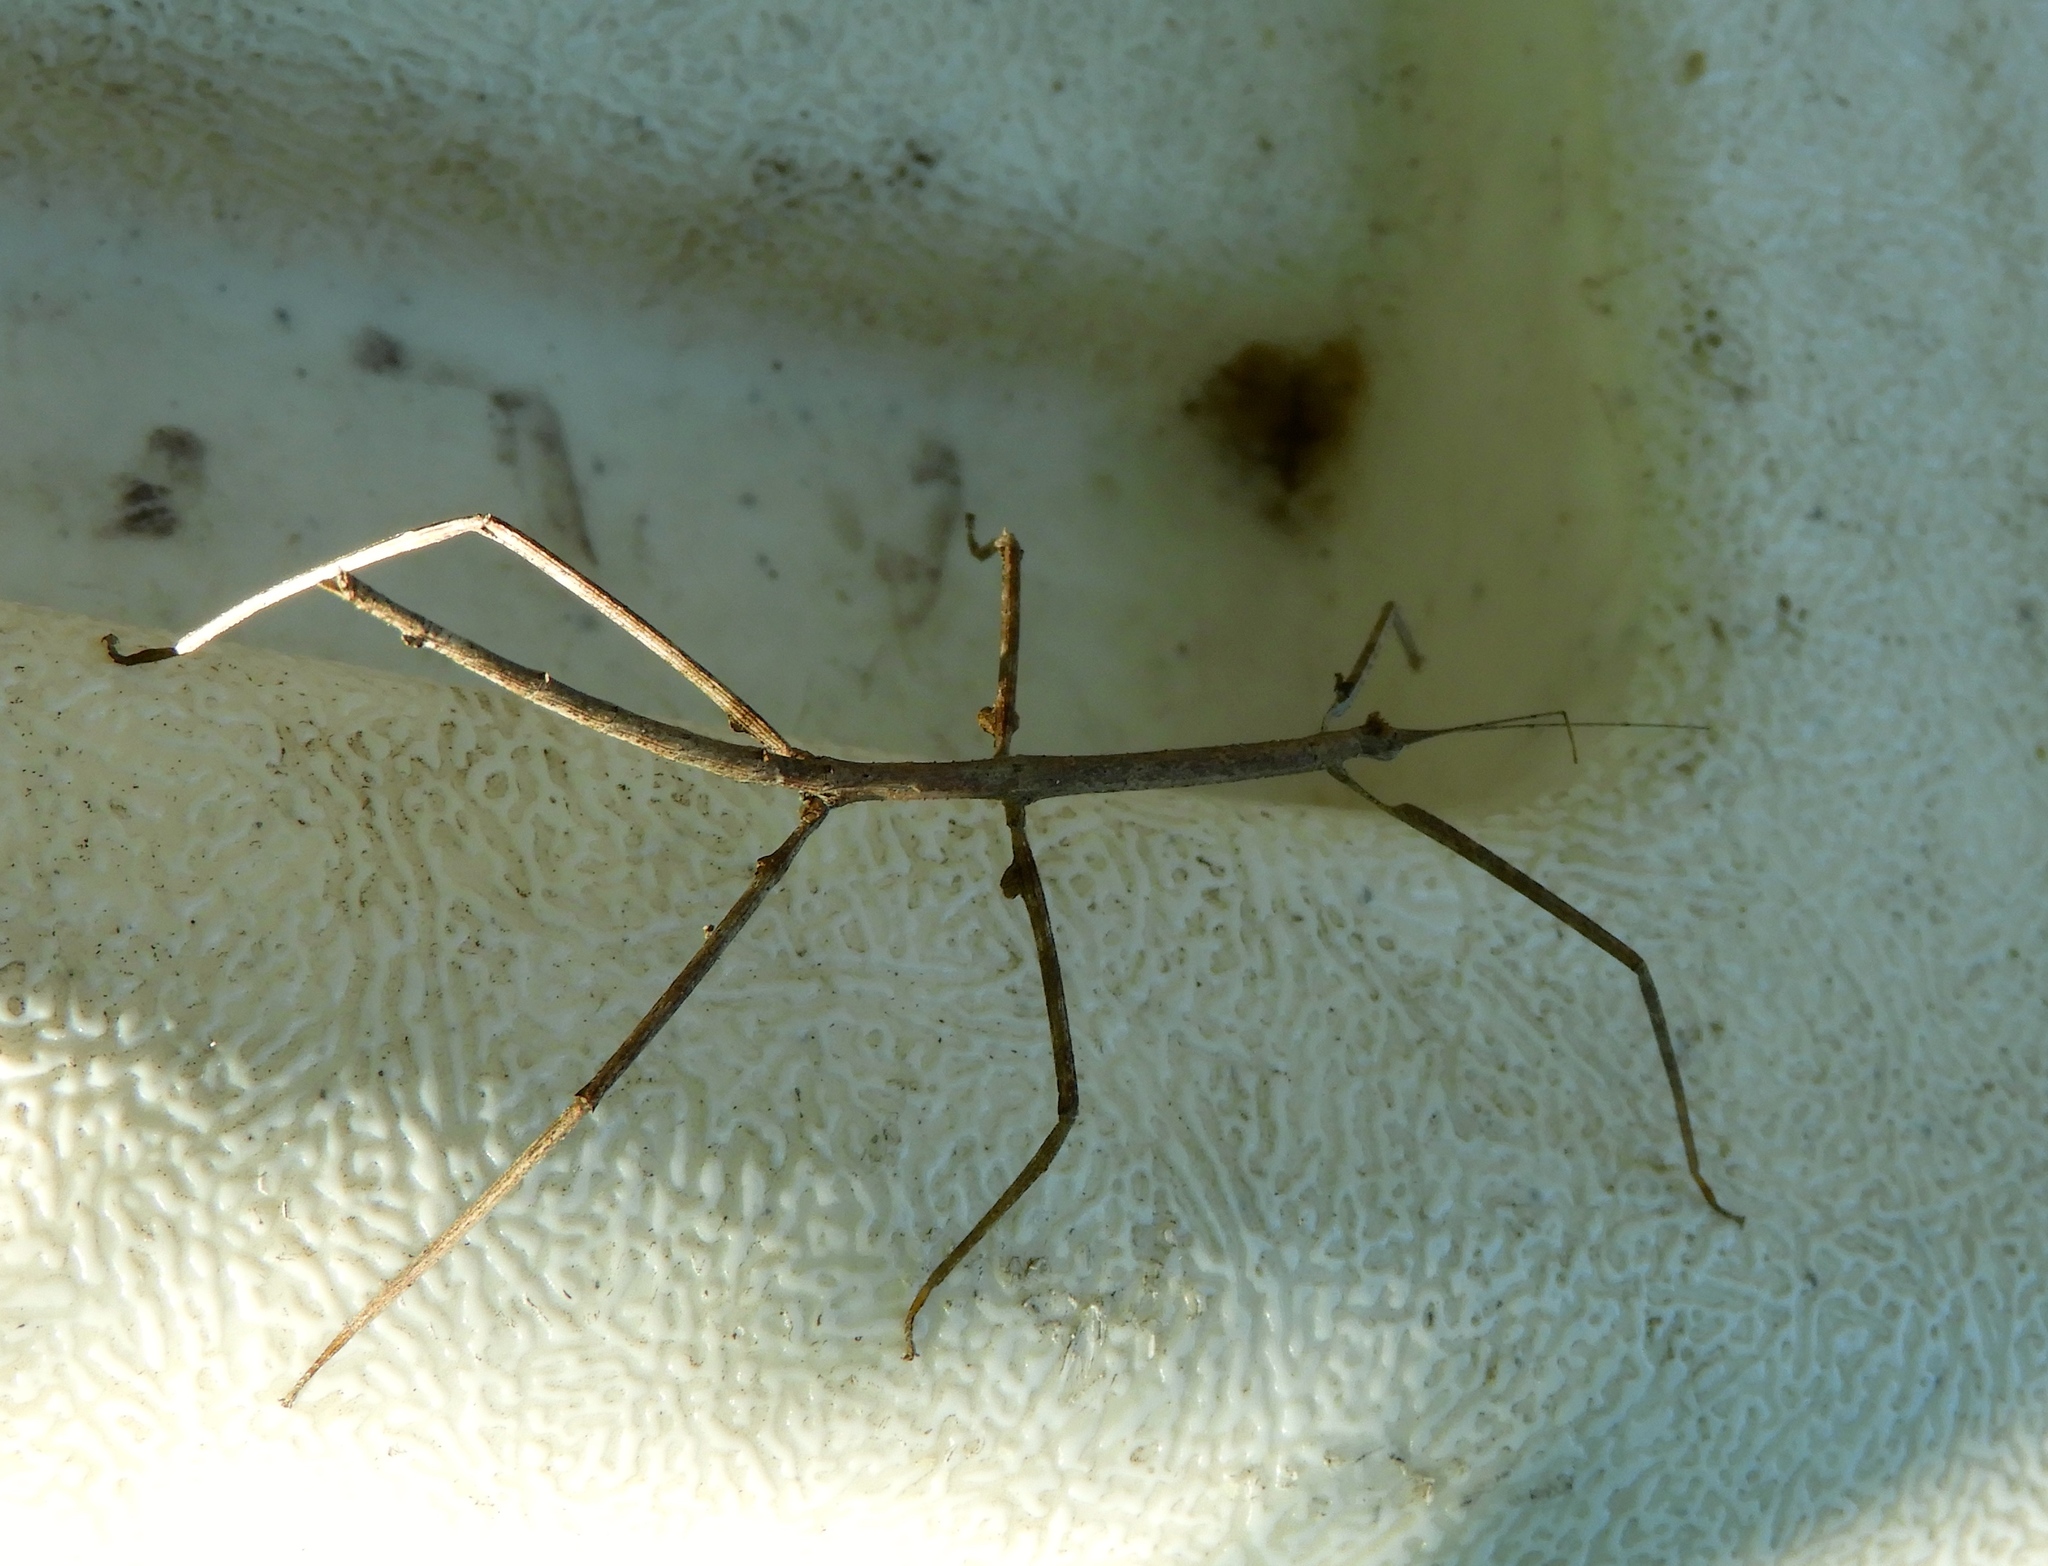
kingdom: Animalia
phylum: Arthropoda
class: Insecta
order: Phasmida
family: Diapheromeridae
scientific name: Diapheromeridae
